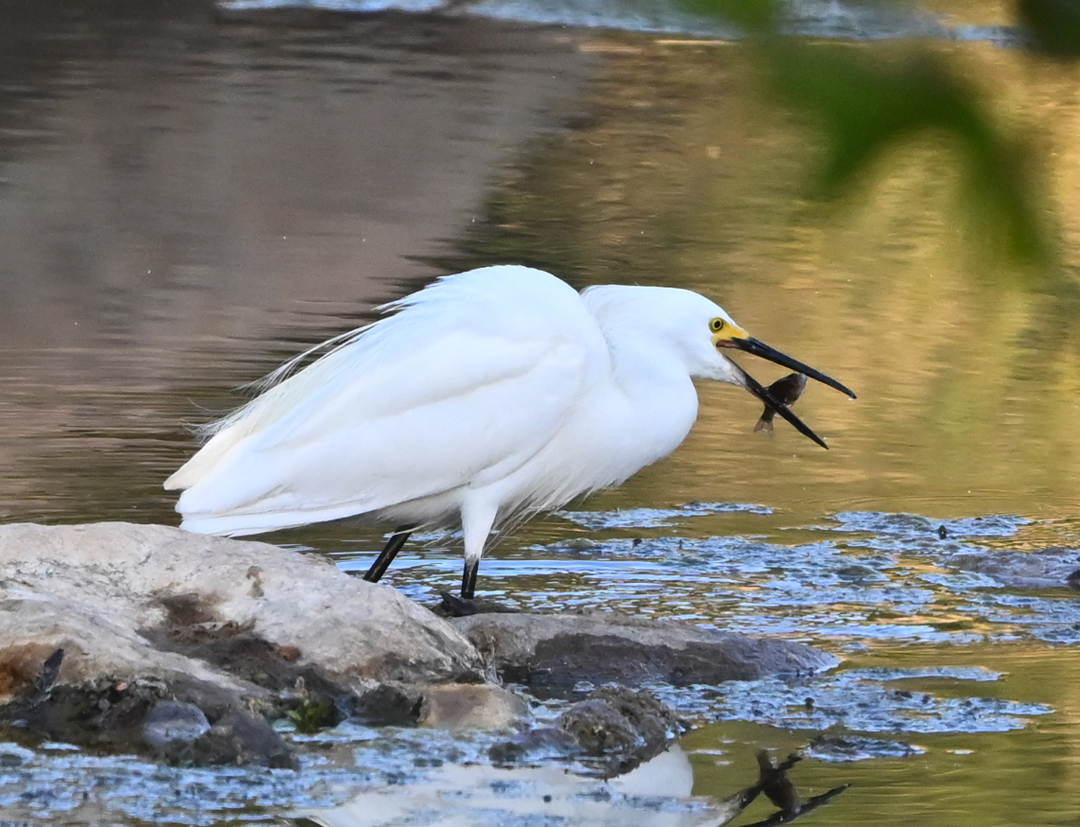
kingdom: Animalia
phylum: Chordata
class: Aves
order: Pelecaniformes
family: Ardeidae
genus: Egretta
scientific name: Egretta thula
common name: Snowy egret
